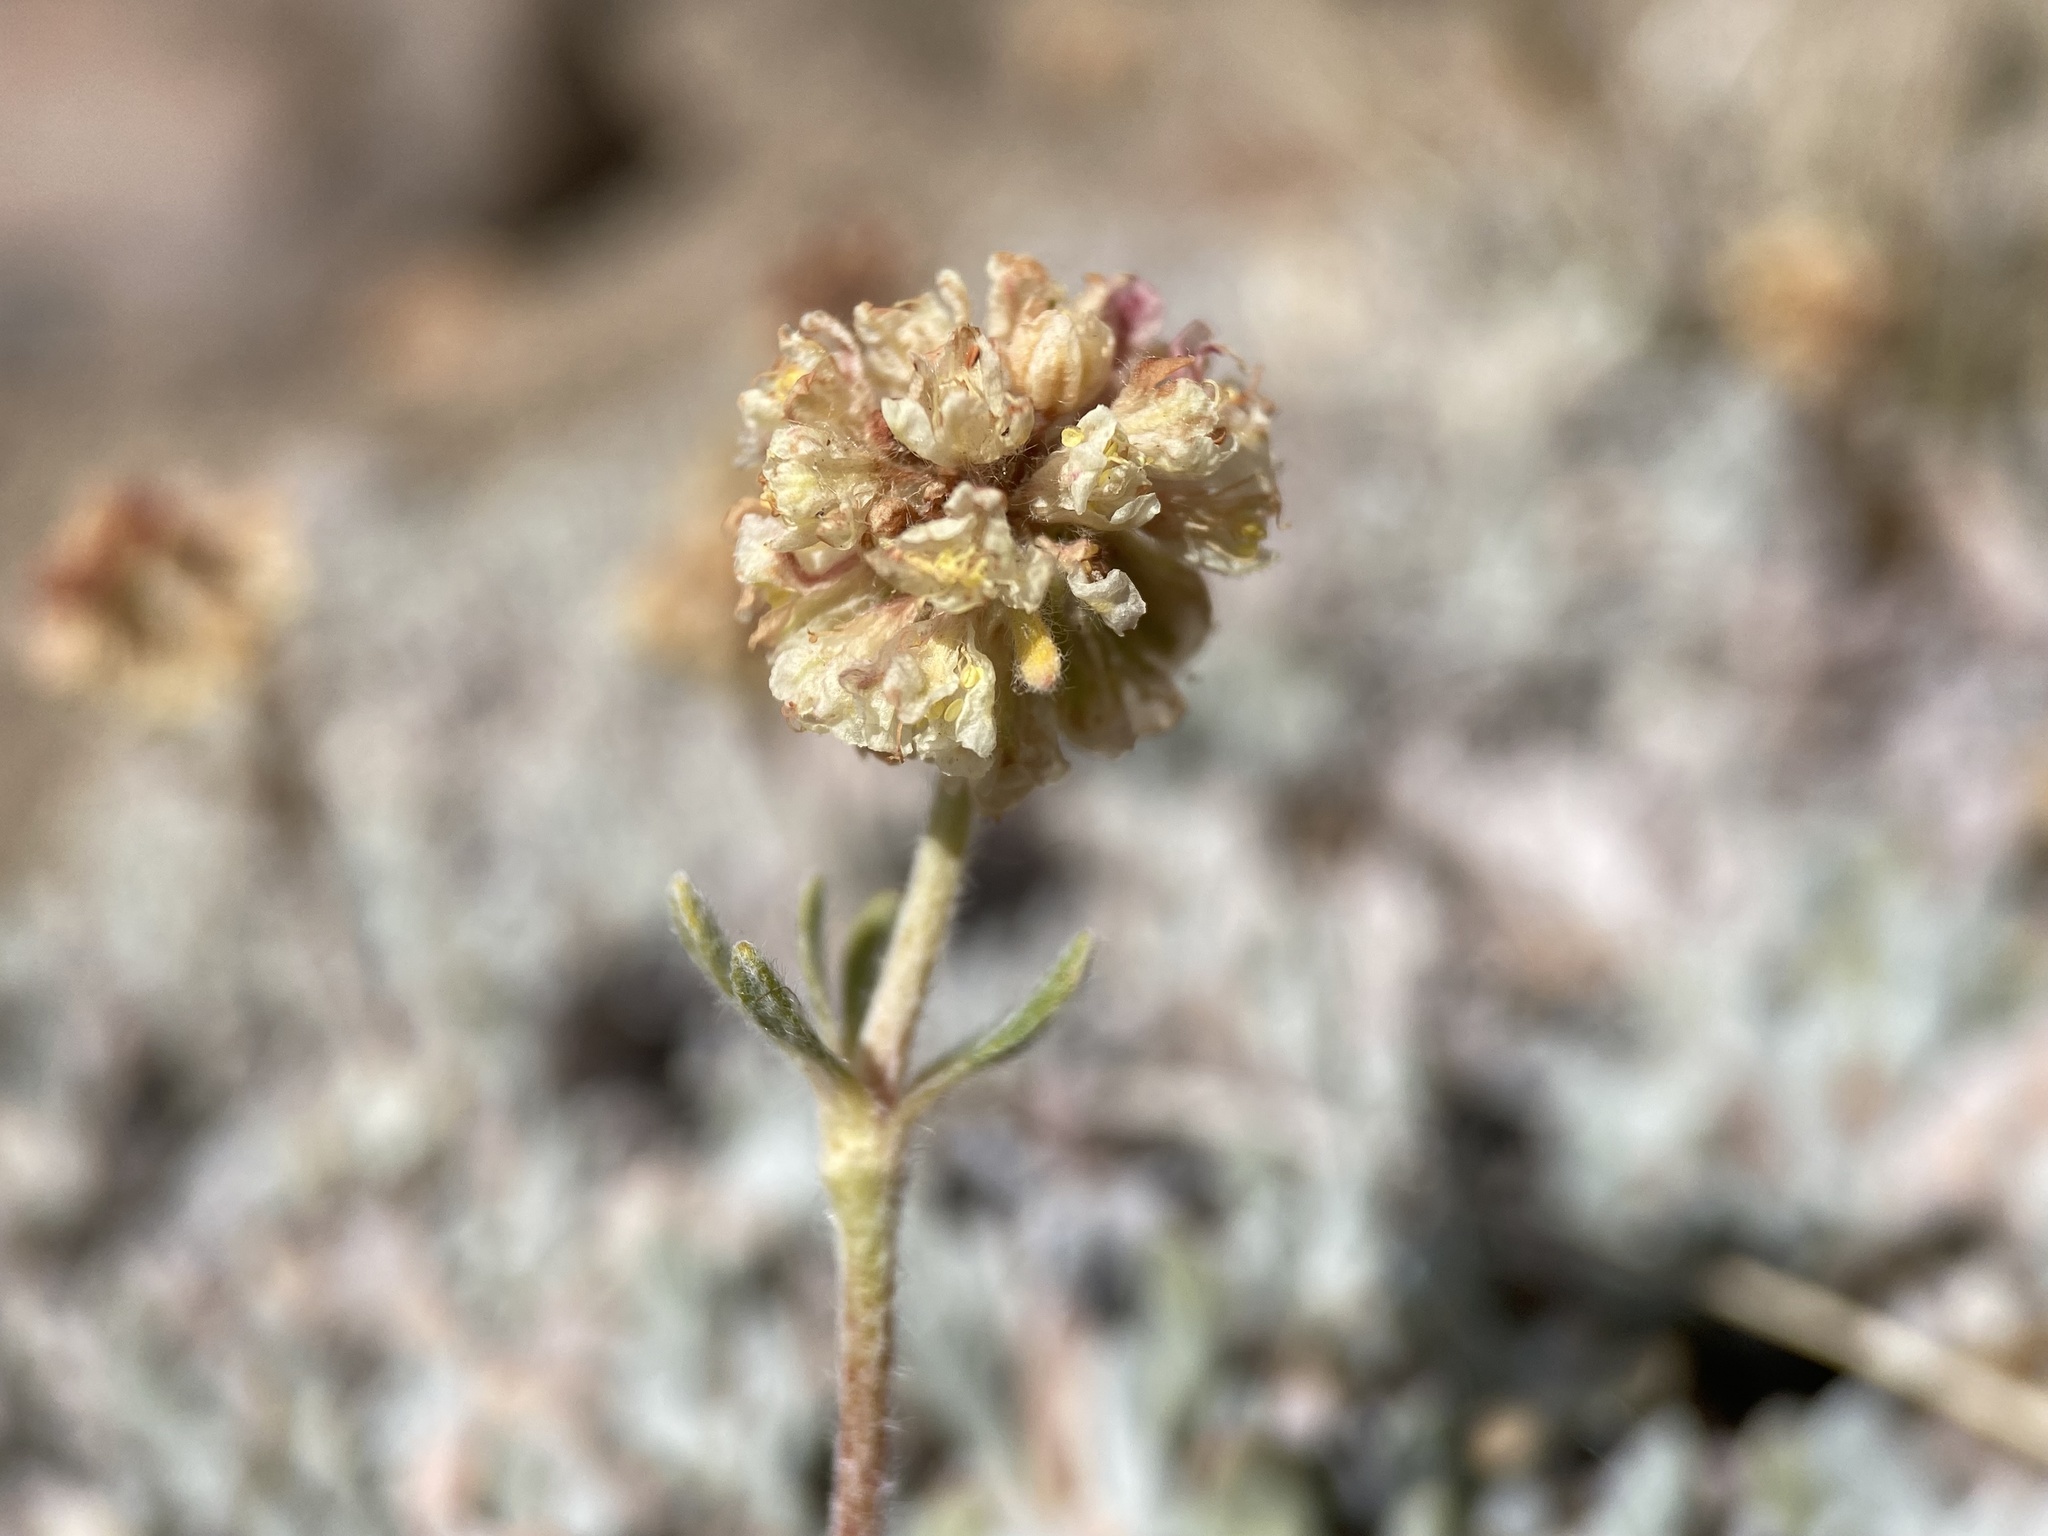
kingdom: Plantae
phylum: Tracheophyta
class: Magnoliopsida
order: Caryophyllales
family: Polygonaceae
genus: Eriogonum
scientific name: Eriogonum douglasii
